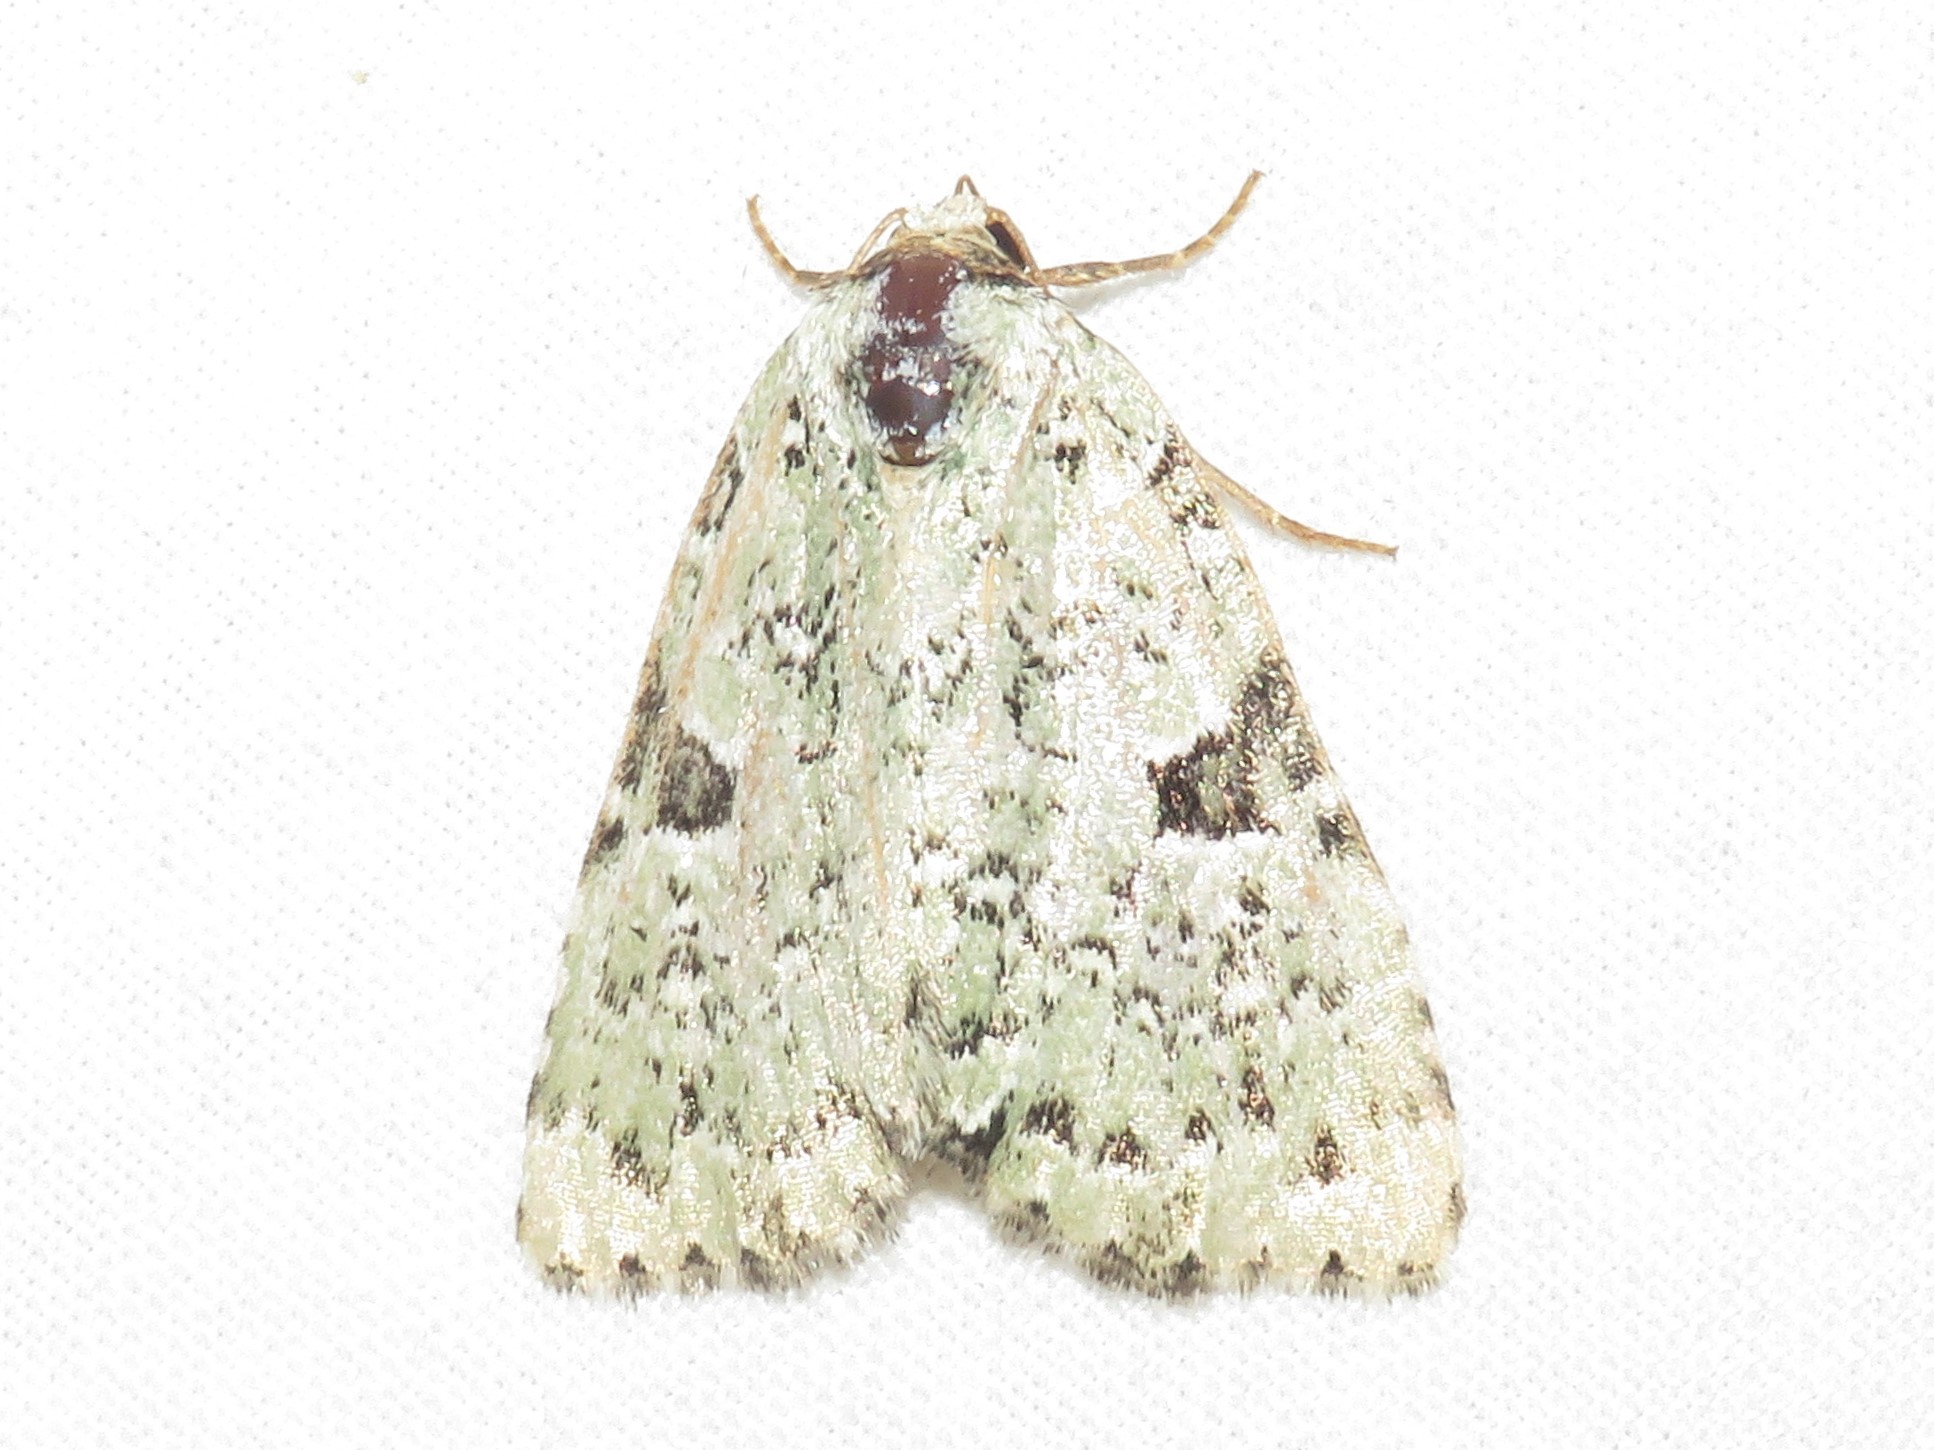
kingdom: Animalia
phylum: Arthropoda
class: Insecta
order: Lepidoptera
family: Noctuidae
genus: Leuconycta
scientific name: Leuconycta diphteroides
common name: Green leuconycta moth
